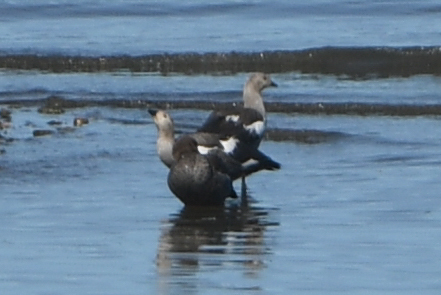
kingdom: Animalia
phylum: Chordata
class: Aves
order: Anseriformes
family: Anatidae
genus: Chloephaga
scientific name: Chloephaga picta
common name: Upland goose
